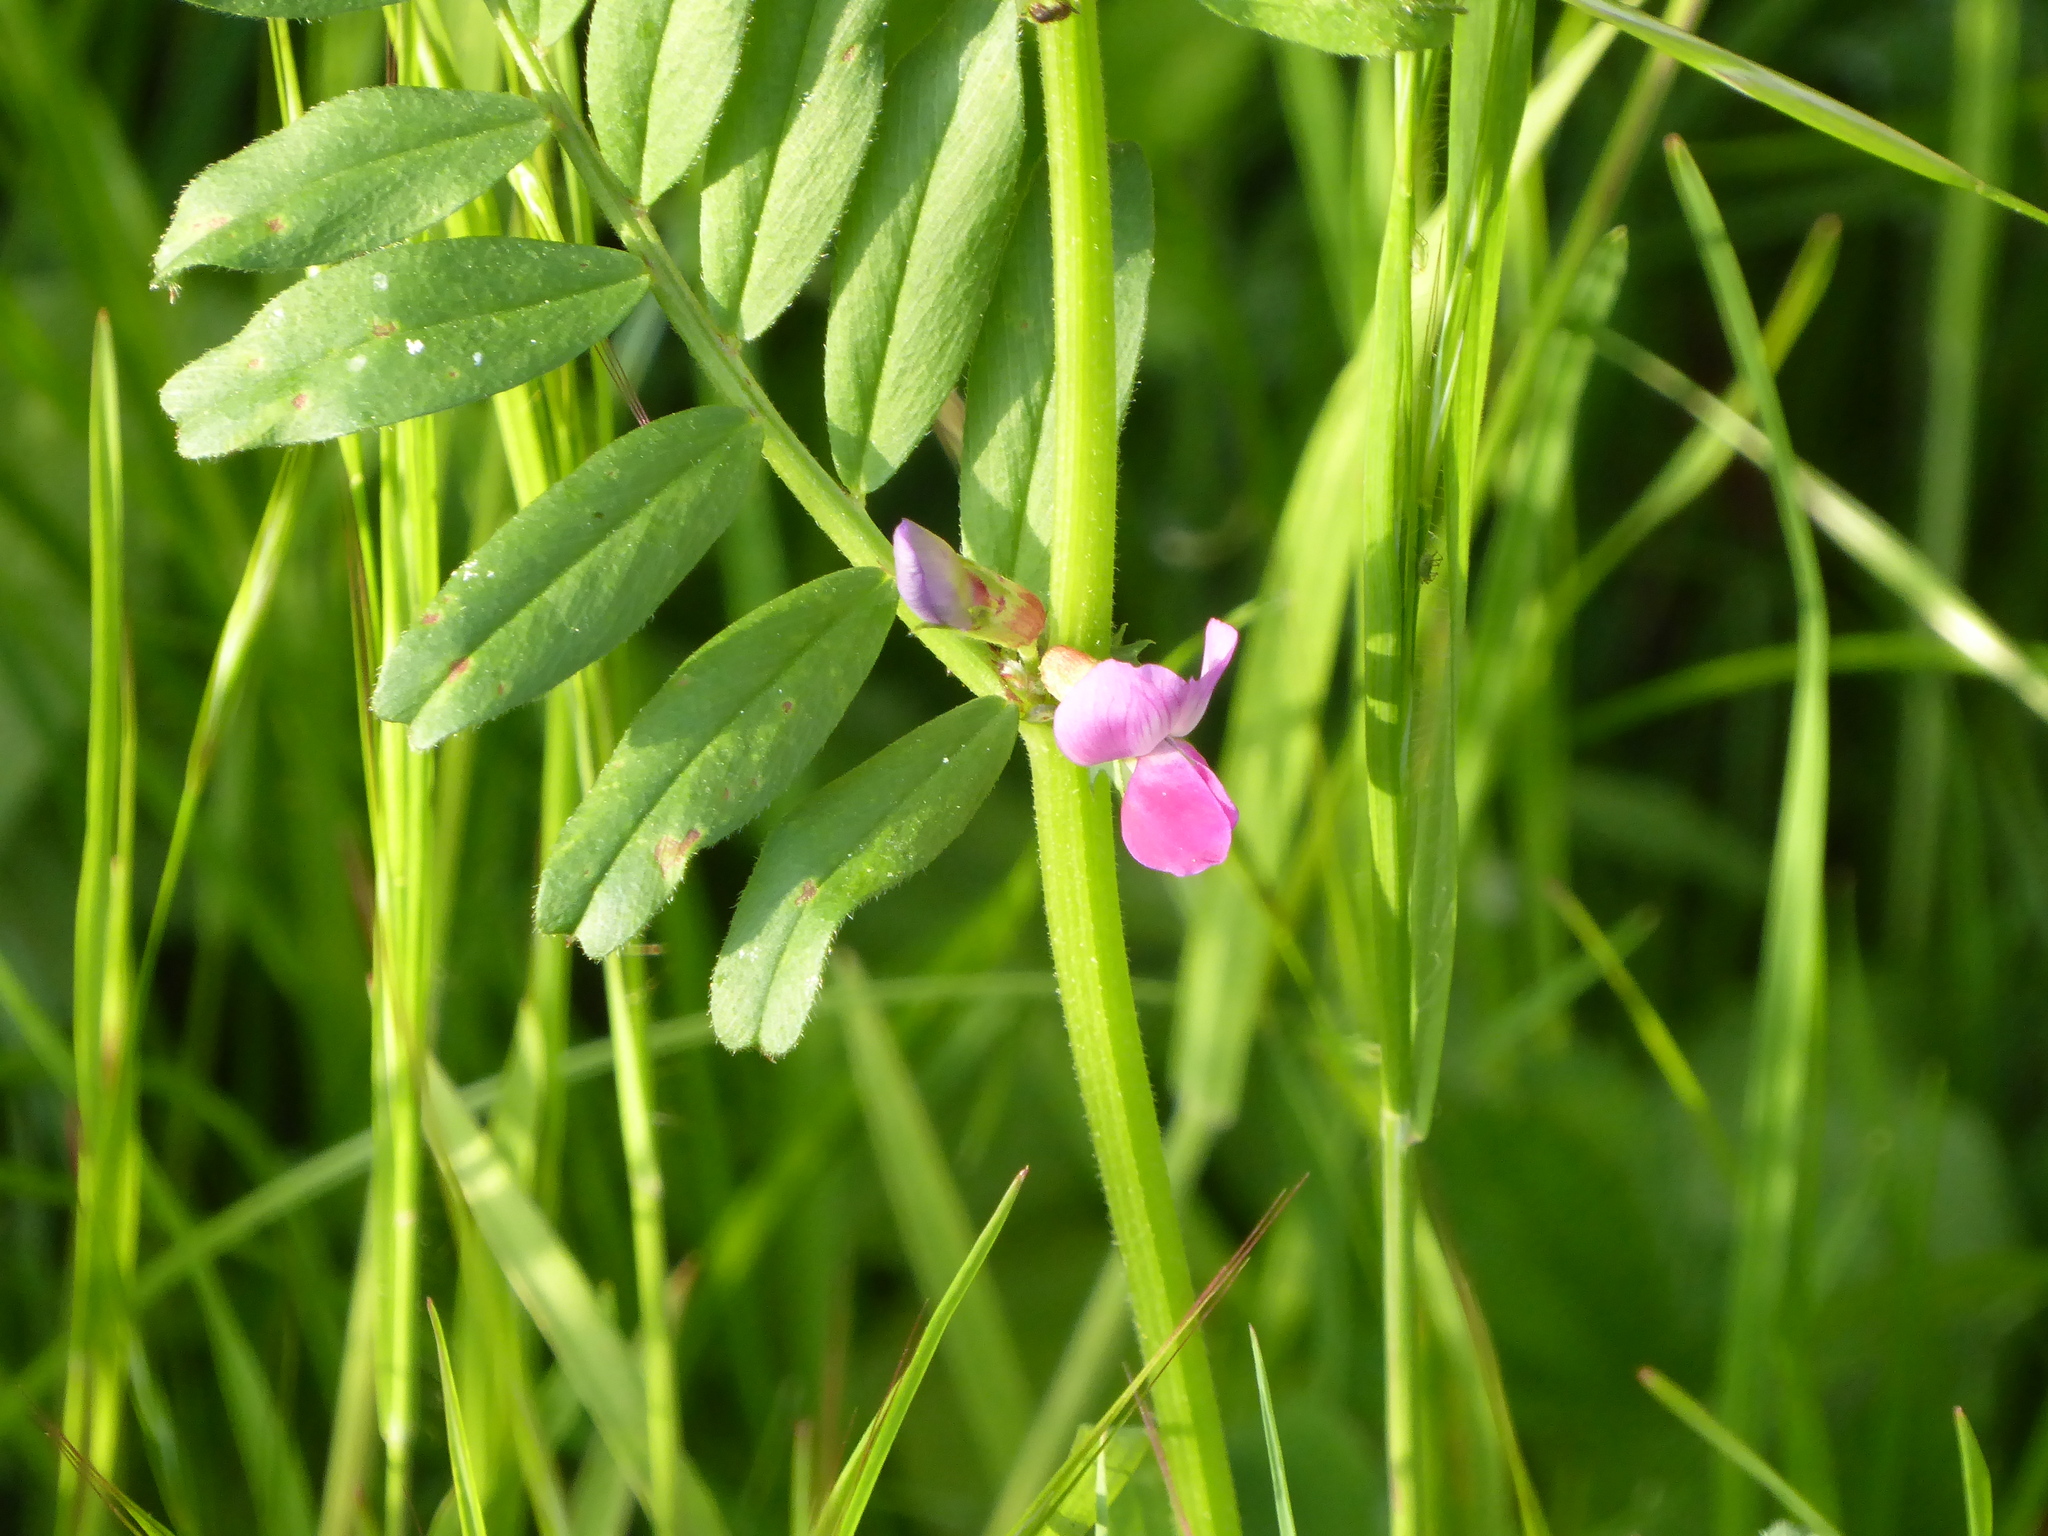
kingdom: Plantae
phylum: Tracheophyta
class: Magnoliopsida
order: Fabales
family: Fabaceae
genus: Vicia
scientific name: Vicia sativa
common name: Garden vetch
